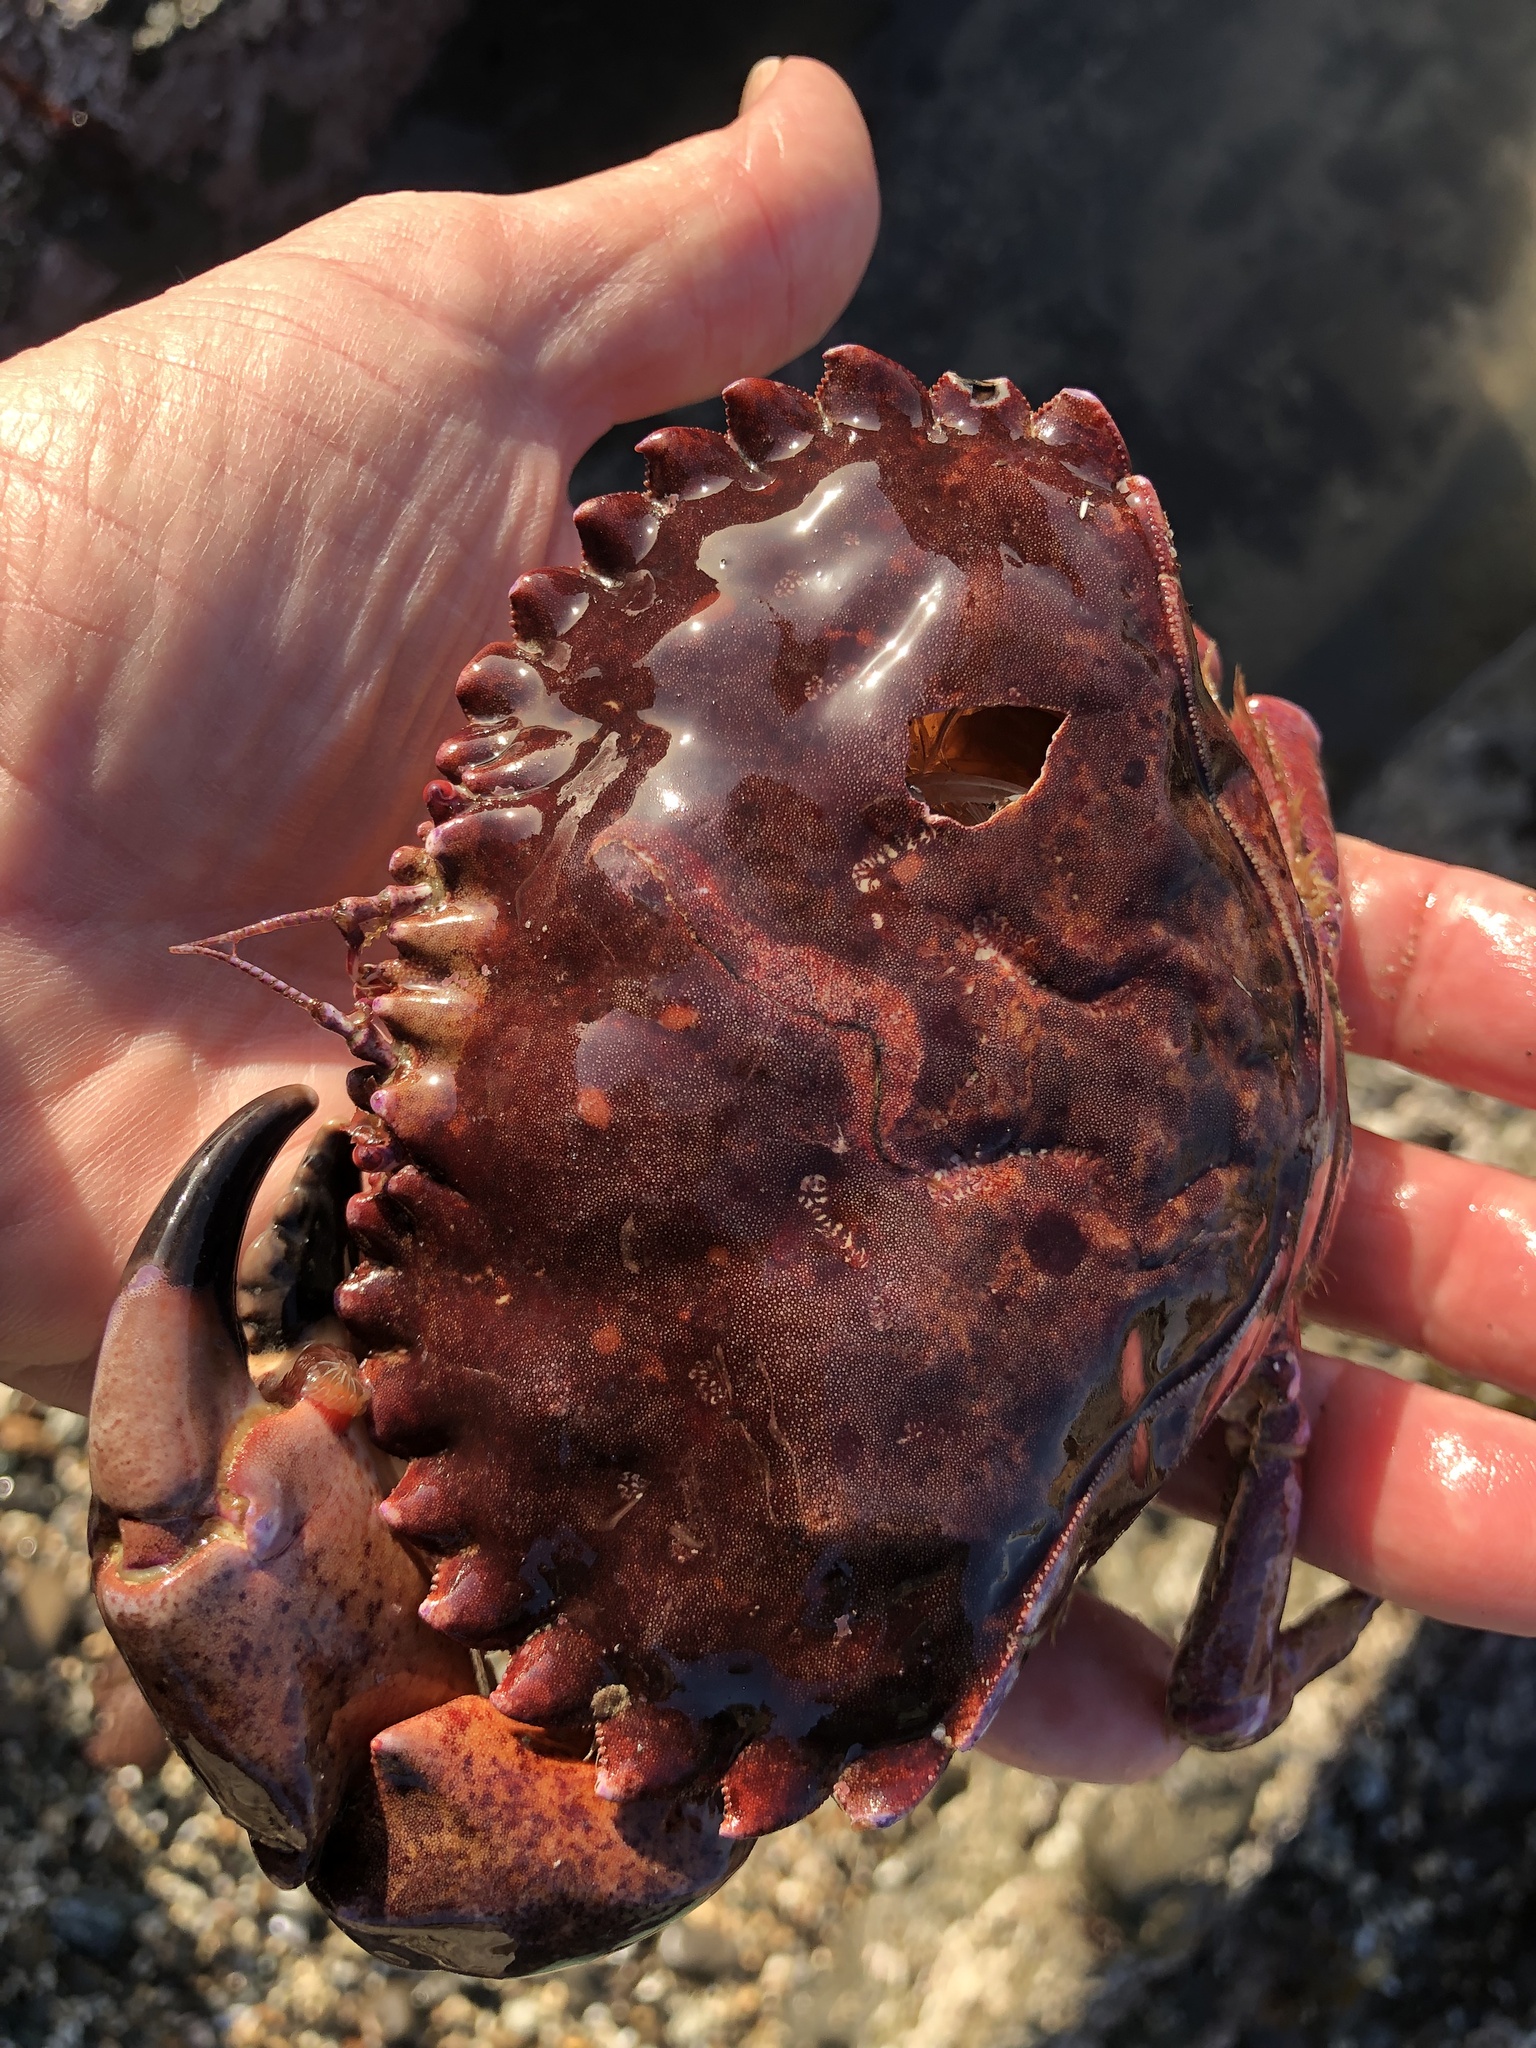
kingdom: Animalia
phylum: Arthropoda
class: Malacostraca
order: Decapoda
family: Cancridae
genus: Romaleon
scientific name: Romaleon antennarium
